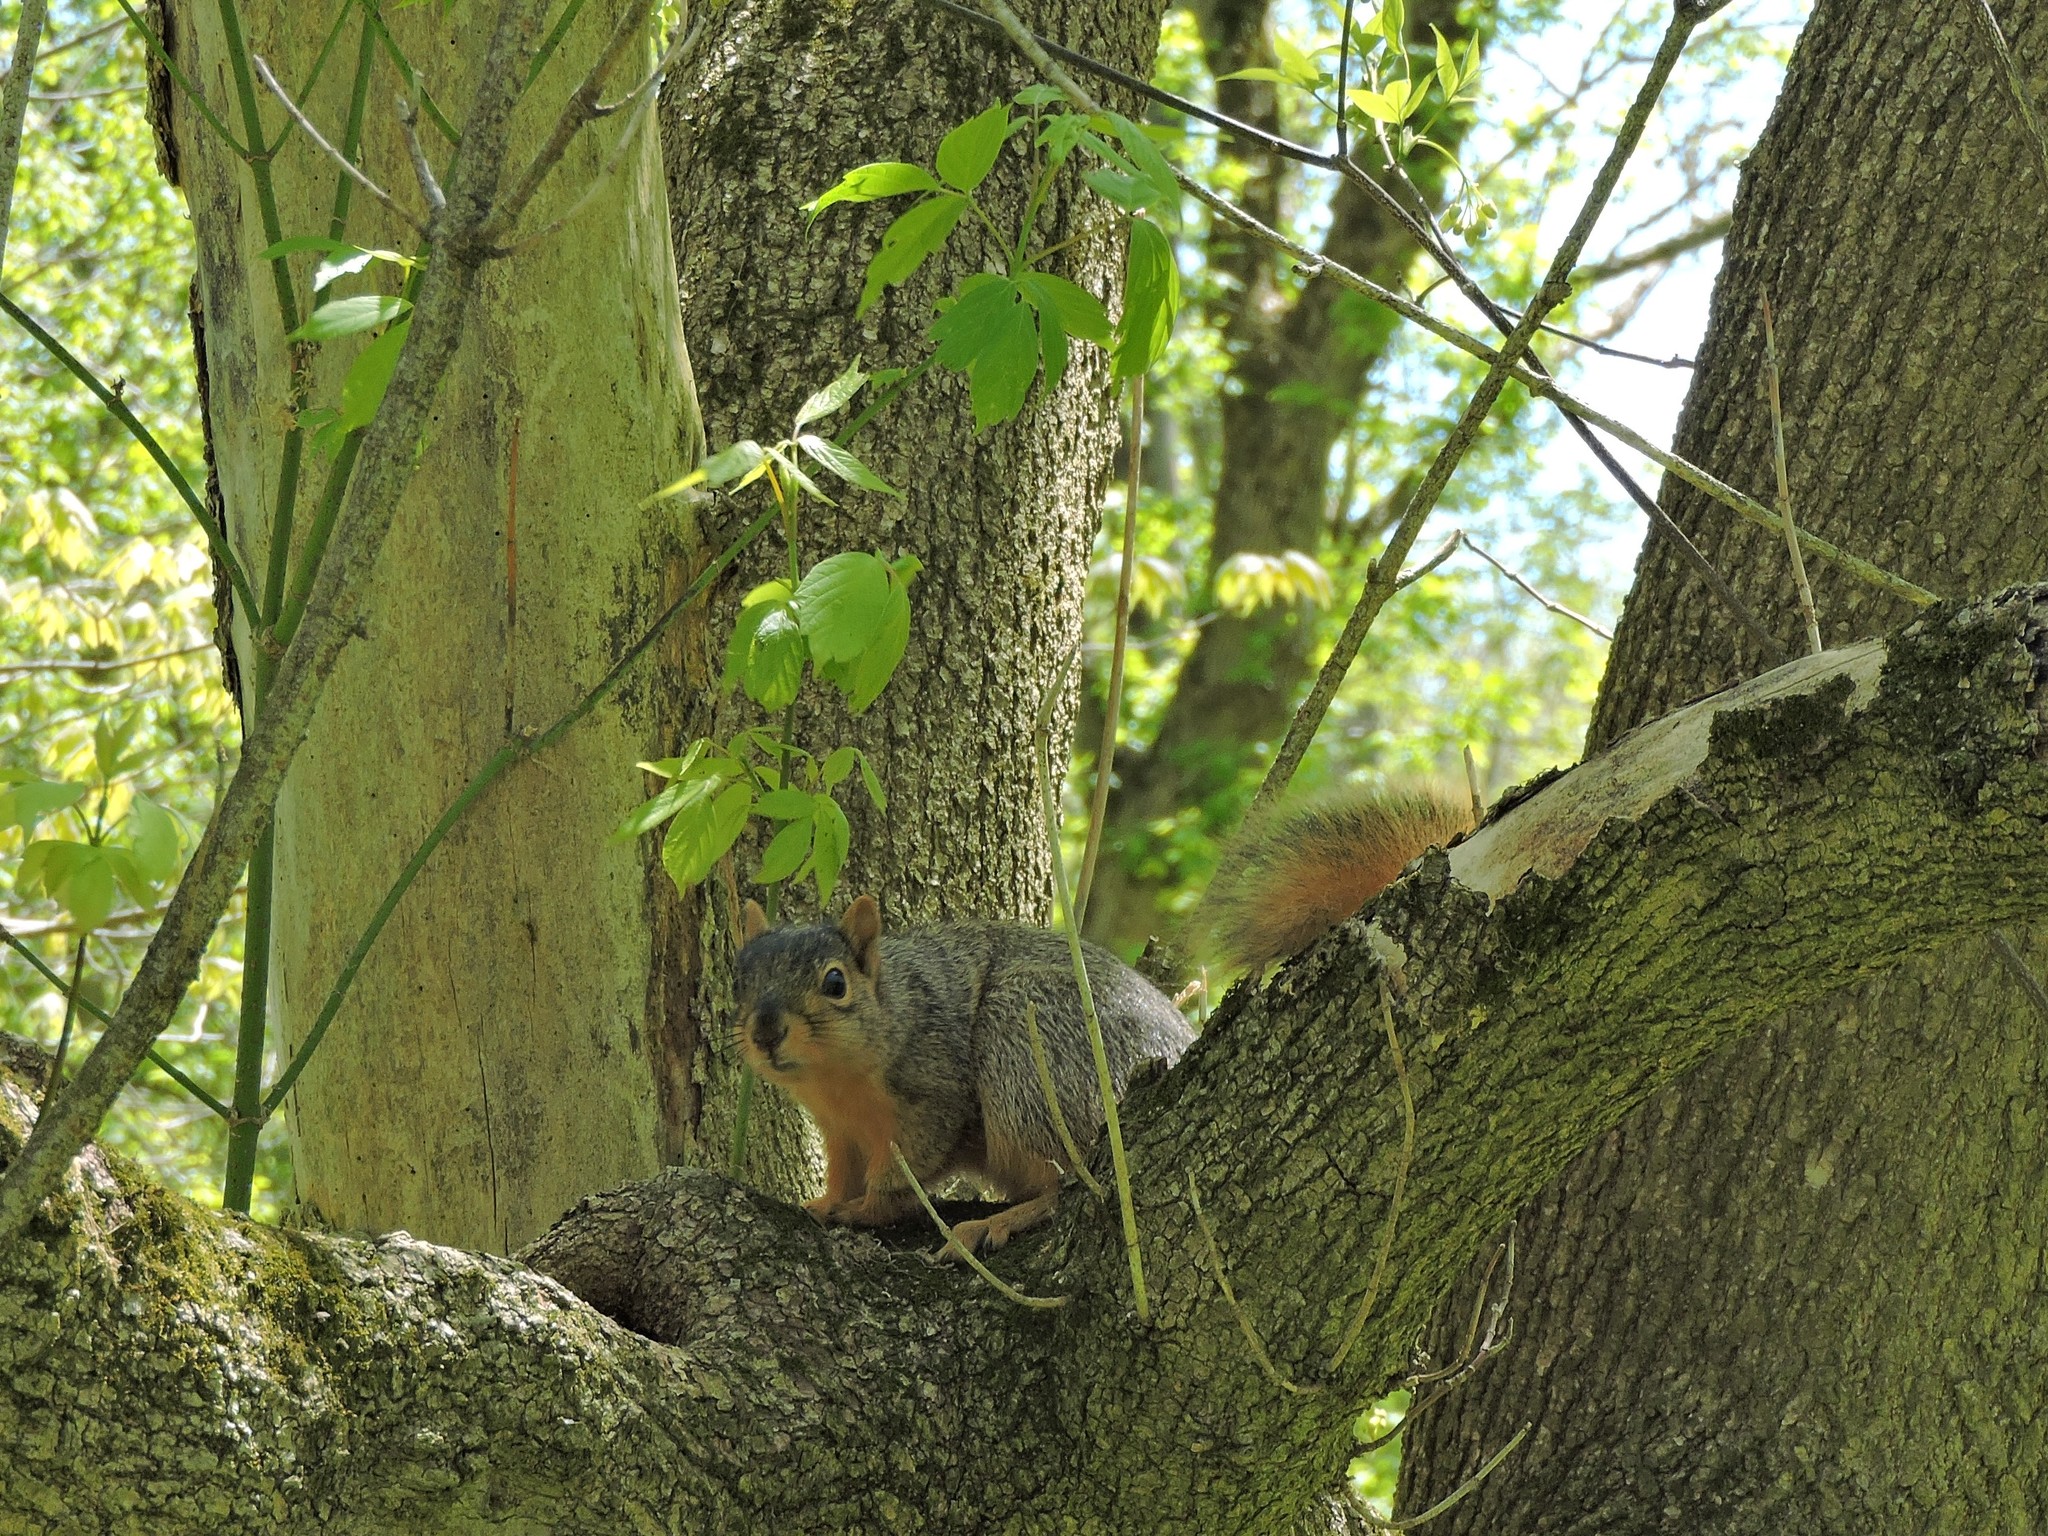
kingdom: Animalia
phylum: Chordata
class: Mammalia
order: Rodentia
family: Sciuridae
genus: Sciurus
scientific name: Sciurus niger
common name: Fox squirrel
